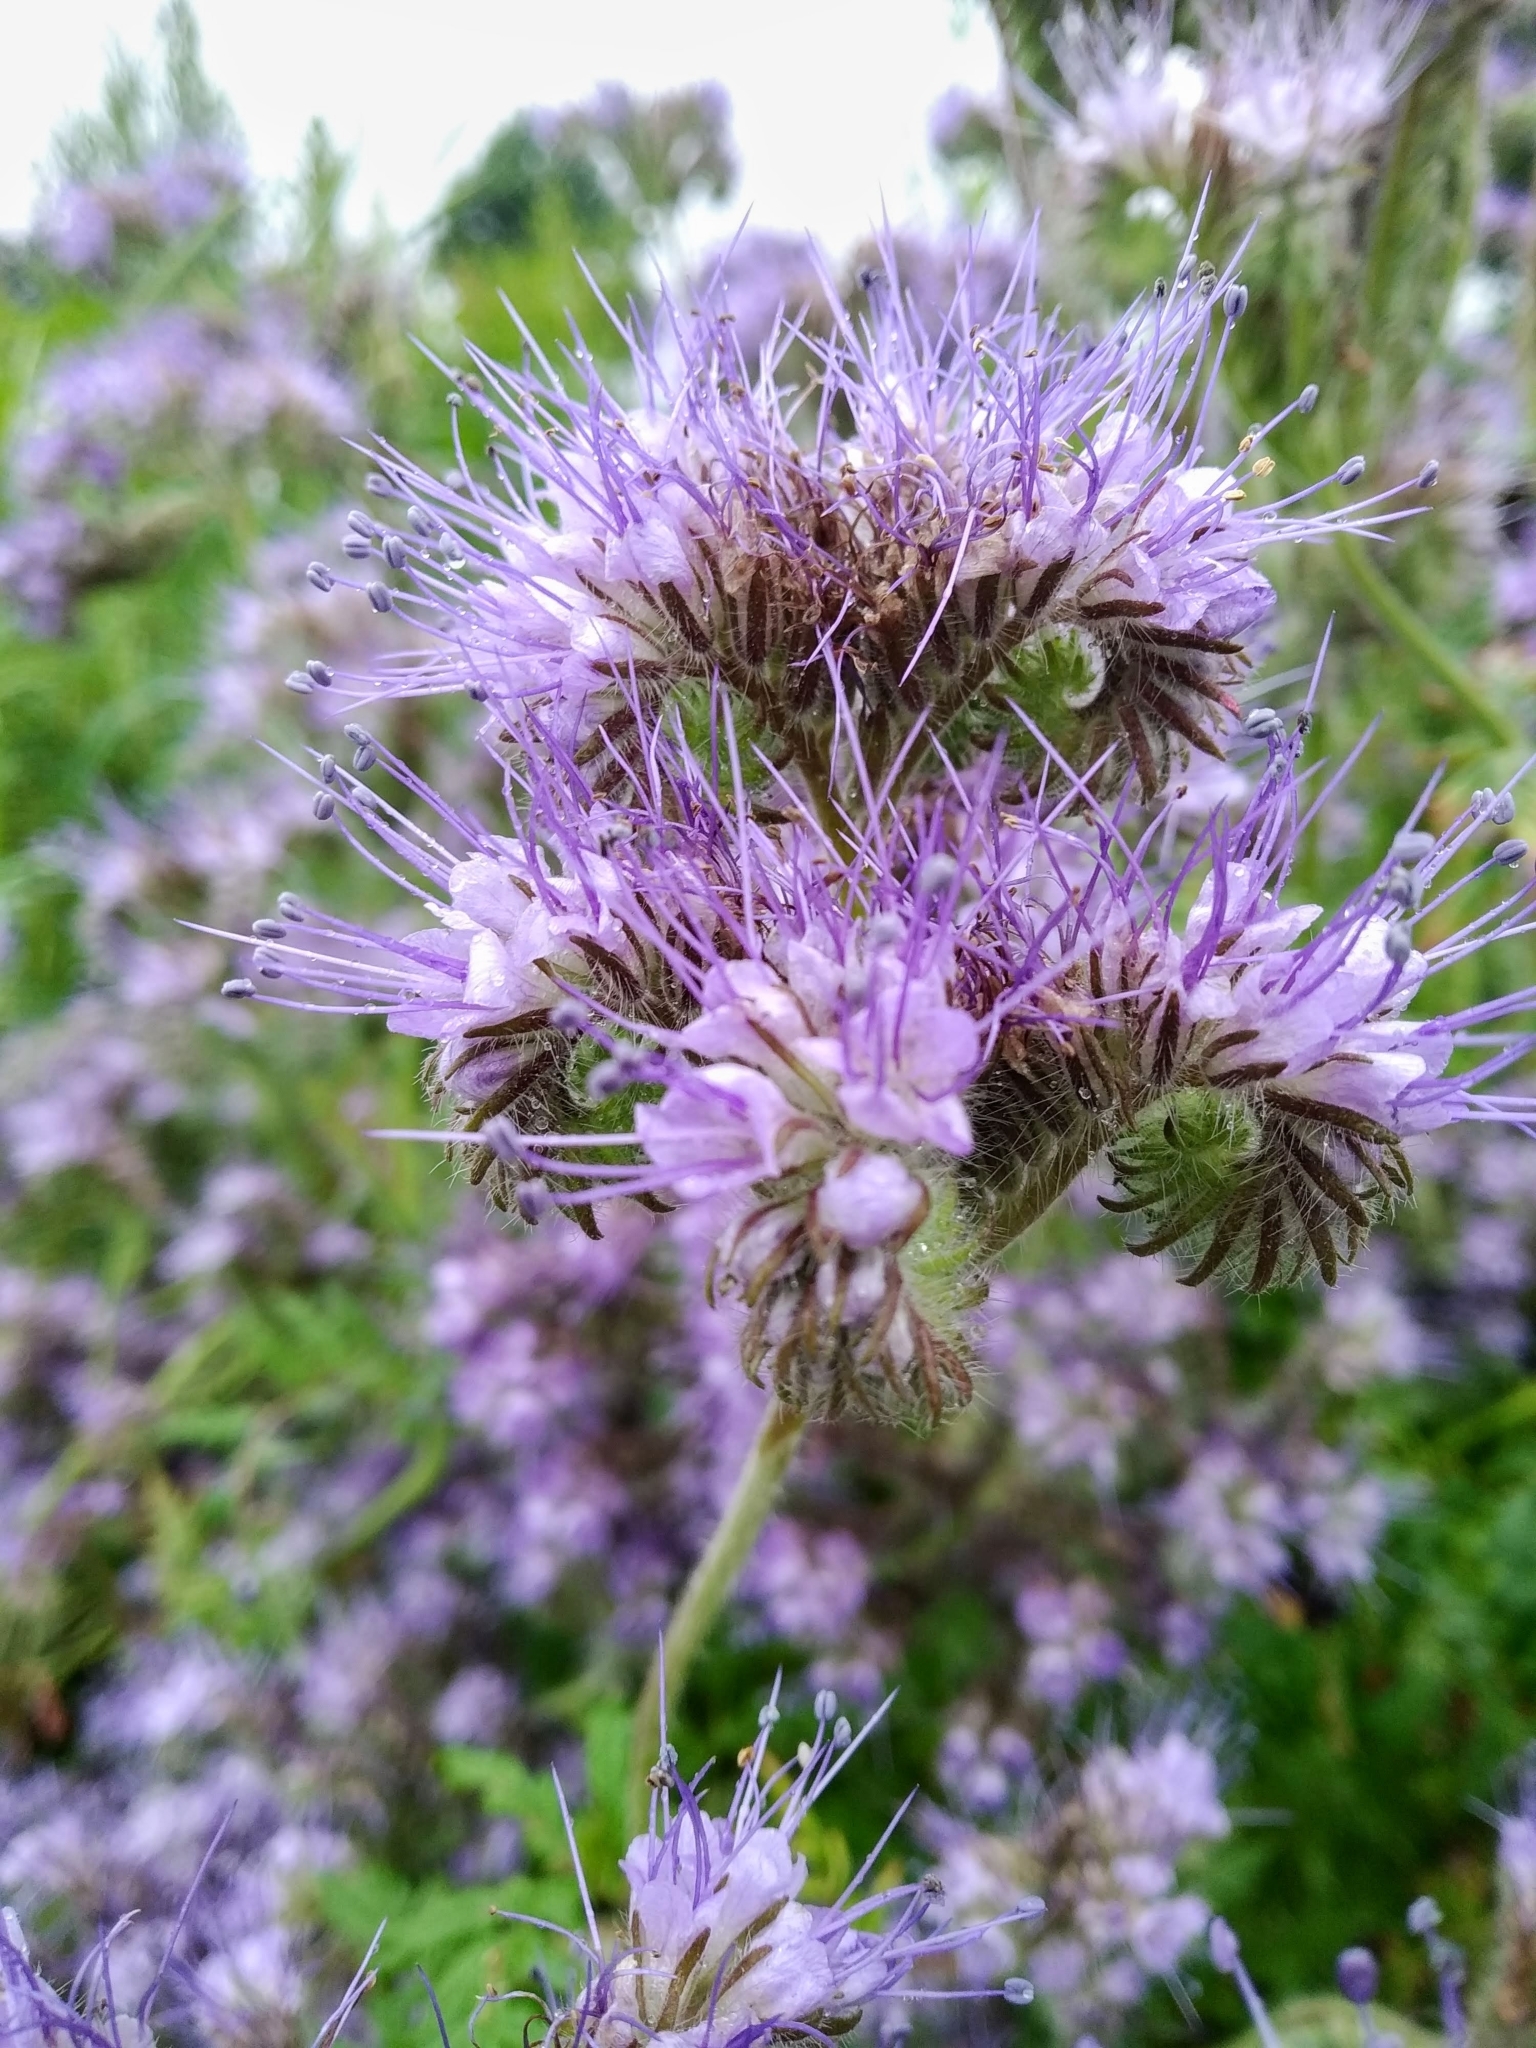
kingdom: Plantae
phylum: Tracheophyta
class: Magnoliopsida
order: Boraginales
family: Hydrophyllaceae
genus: Phacelia
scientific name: Phacelia tanacetifolia
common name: Phacelia
